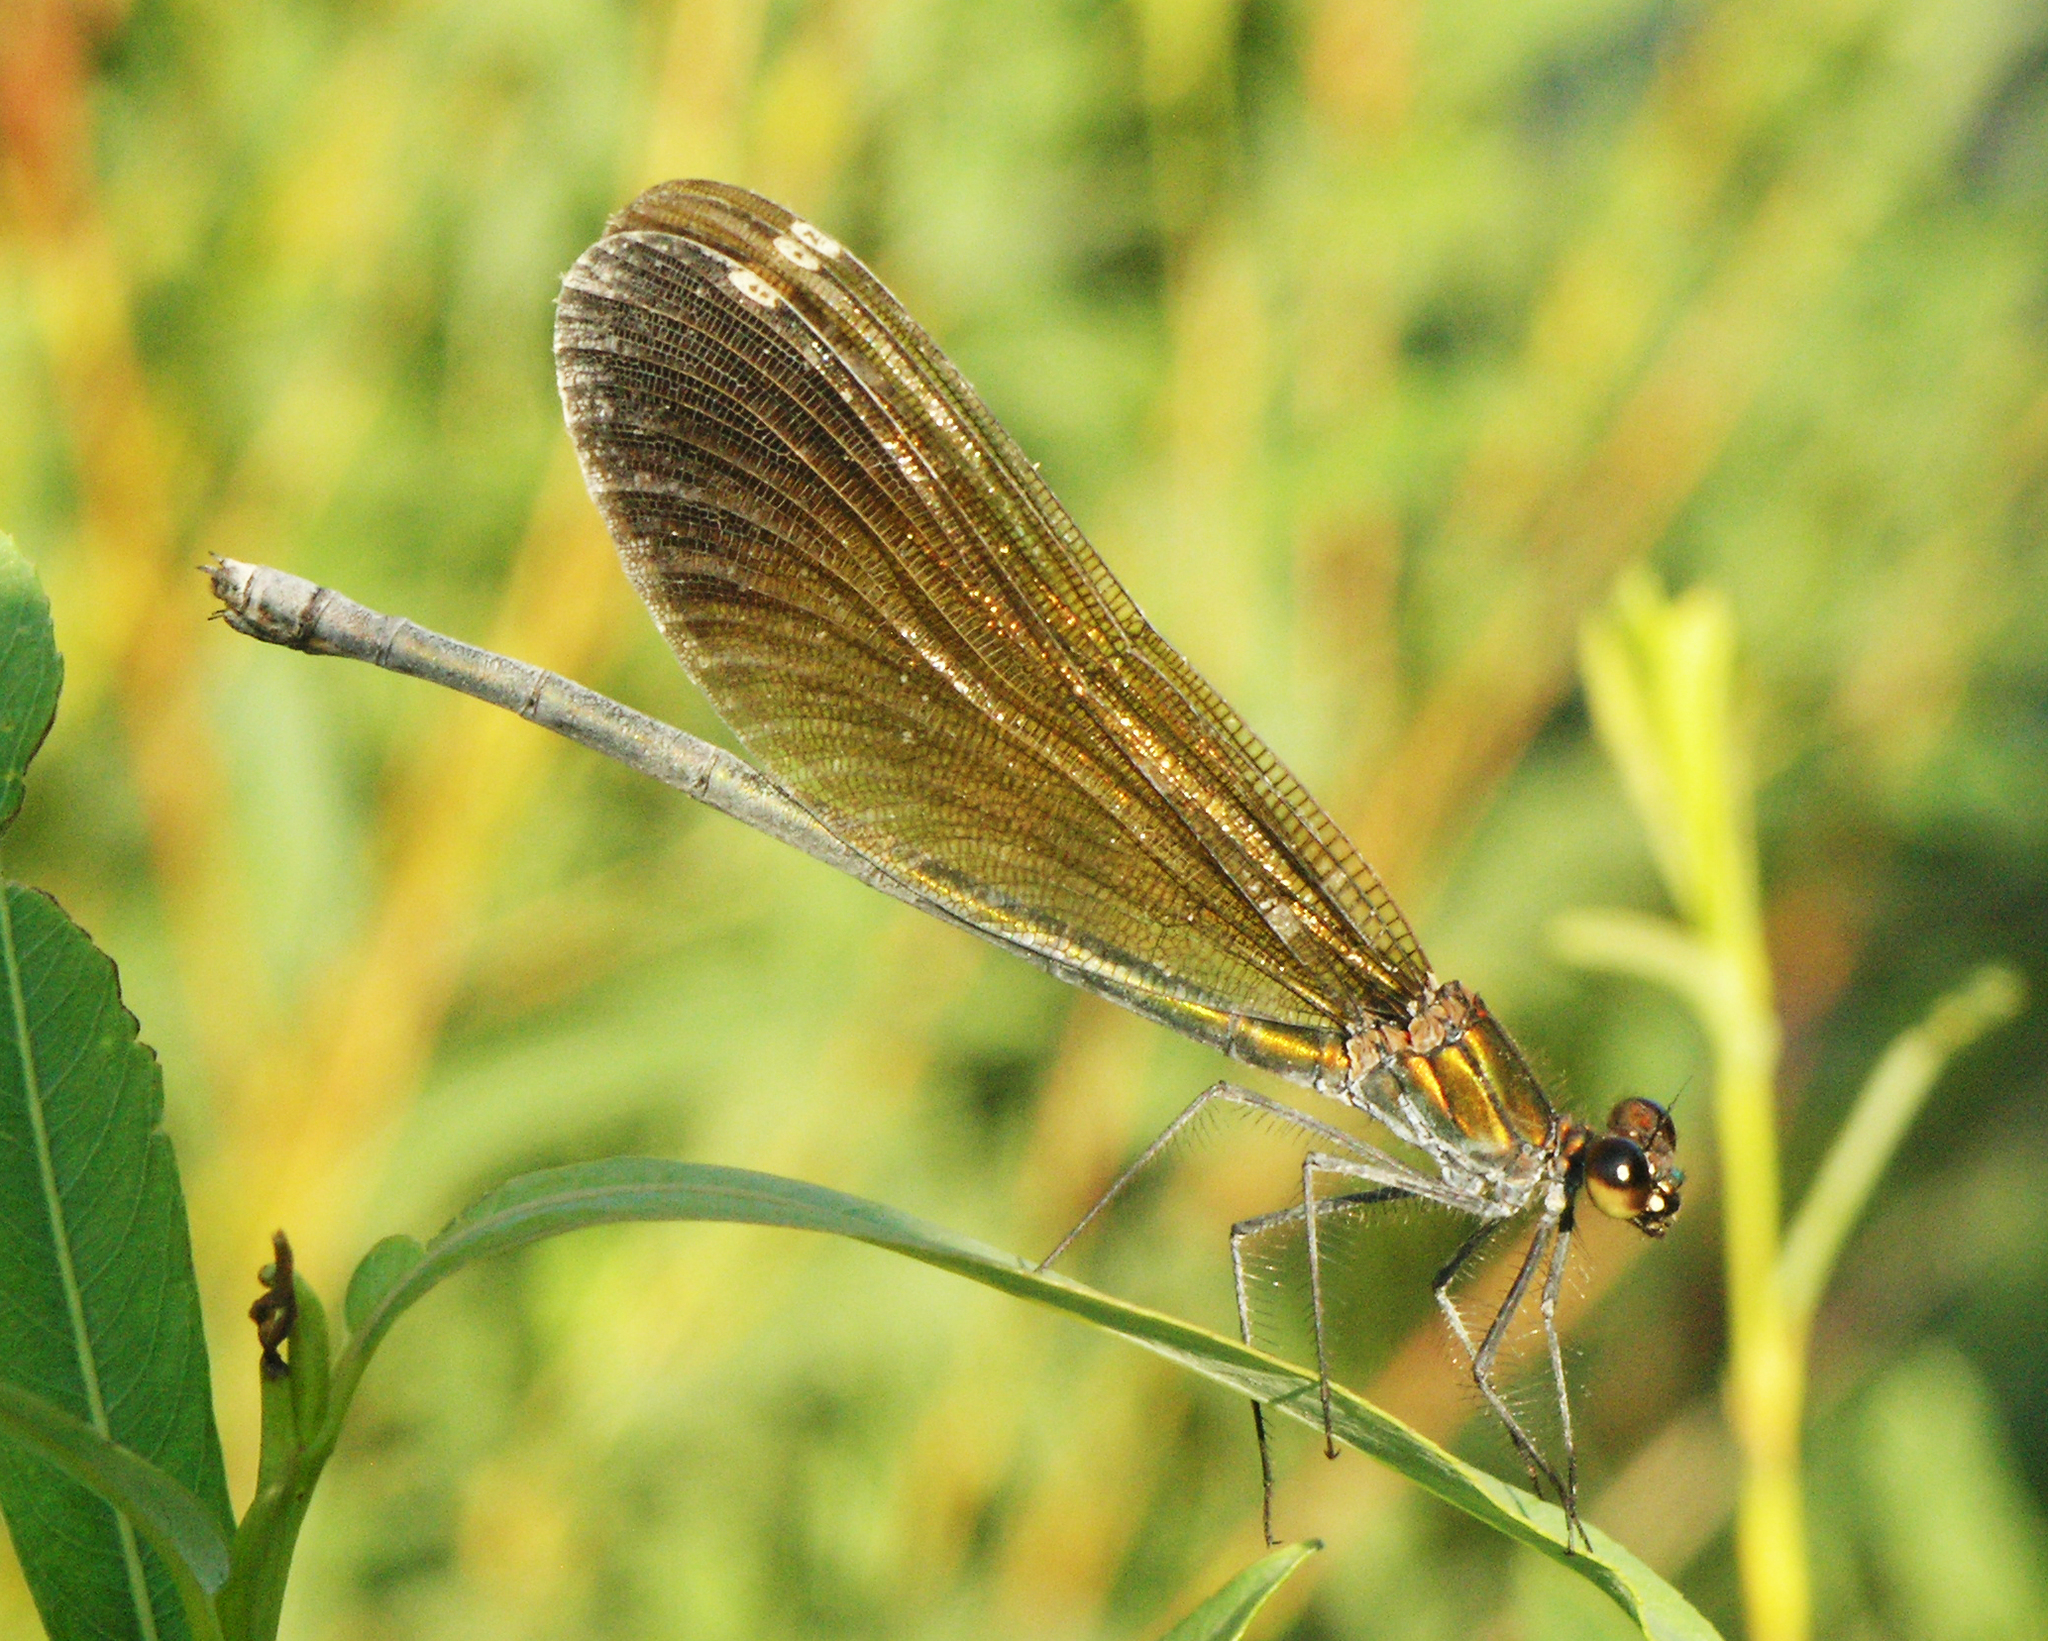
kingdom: Animalia
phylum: Arthropoda
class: Insecta
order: Odonata
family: Calopterygidae
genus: Calopteryx
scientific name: Calopteryx virgo
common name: Beautiful demoiselle
